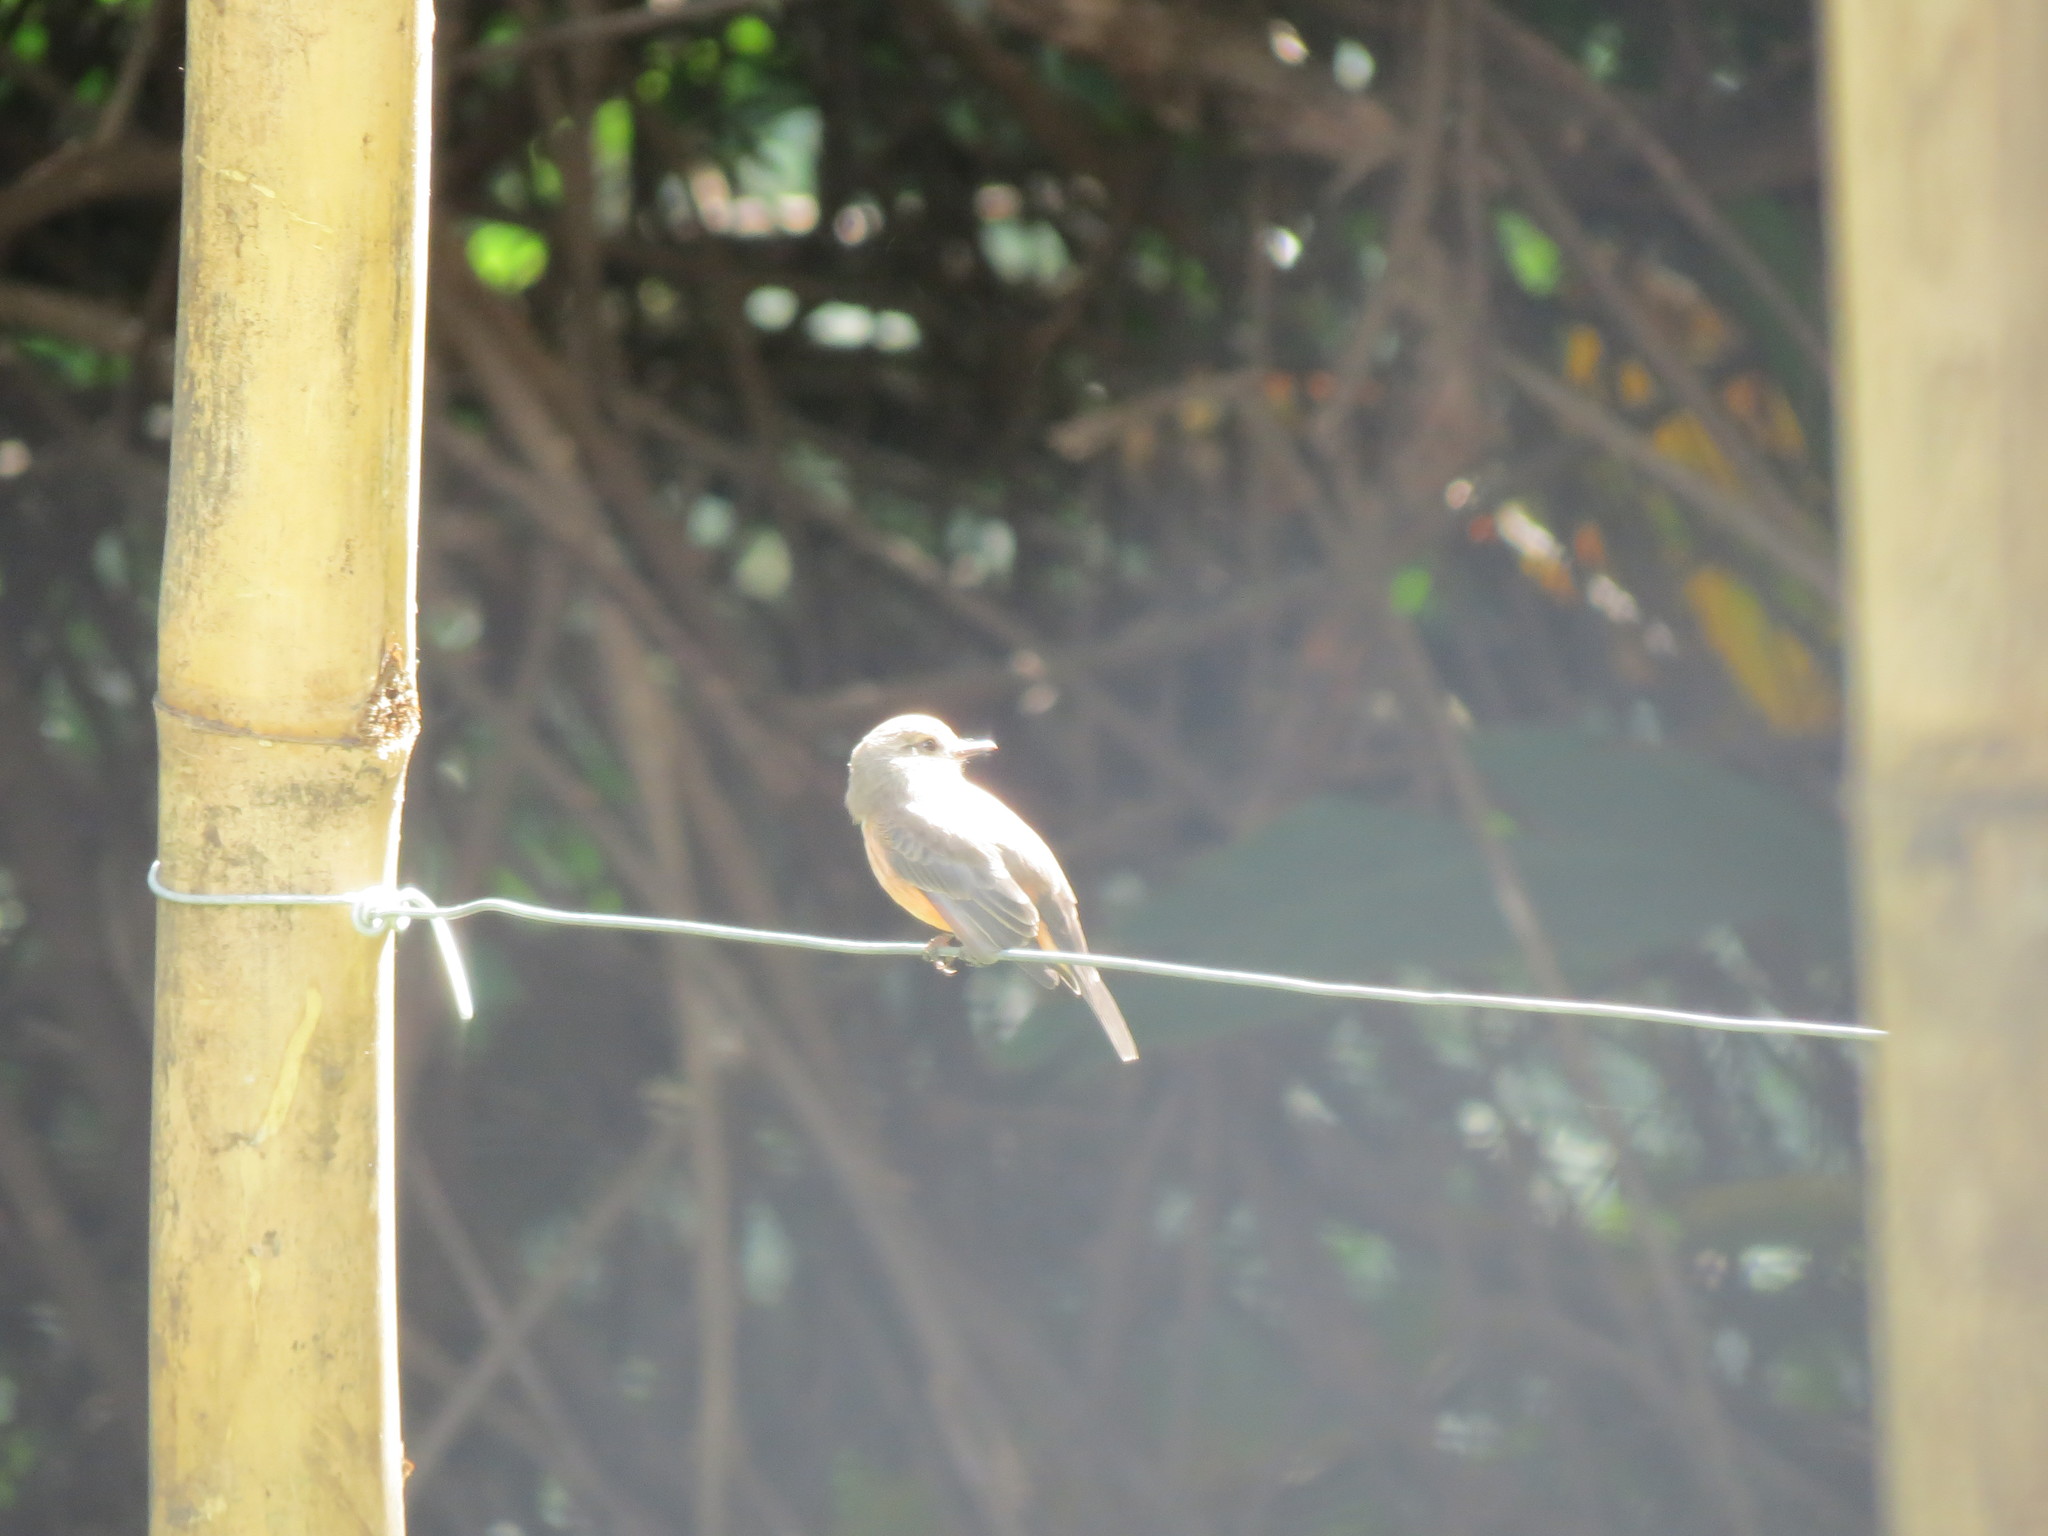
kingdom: Animalia
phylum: Chordata
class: Aves
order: Passeriformes
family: Tyrannidae
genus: Pyrocephalus
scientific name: Pyrocephalus rubinus
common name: Vermilion flycatcher
